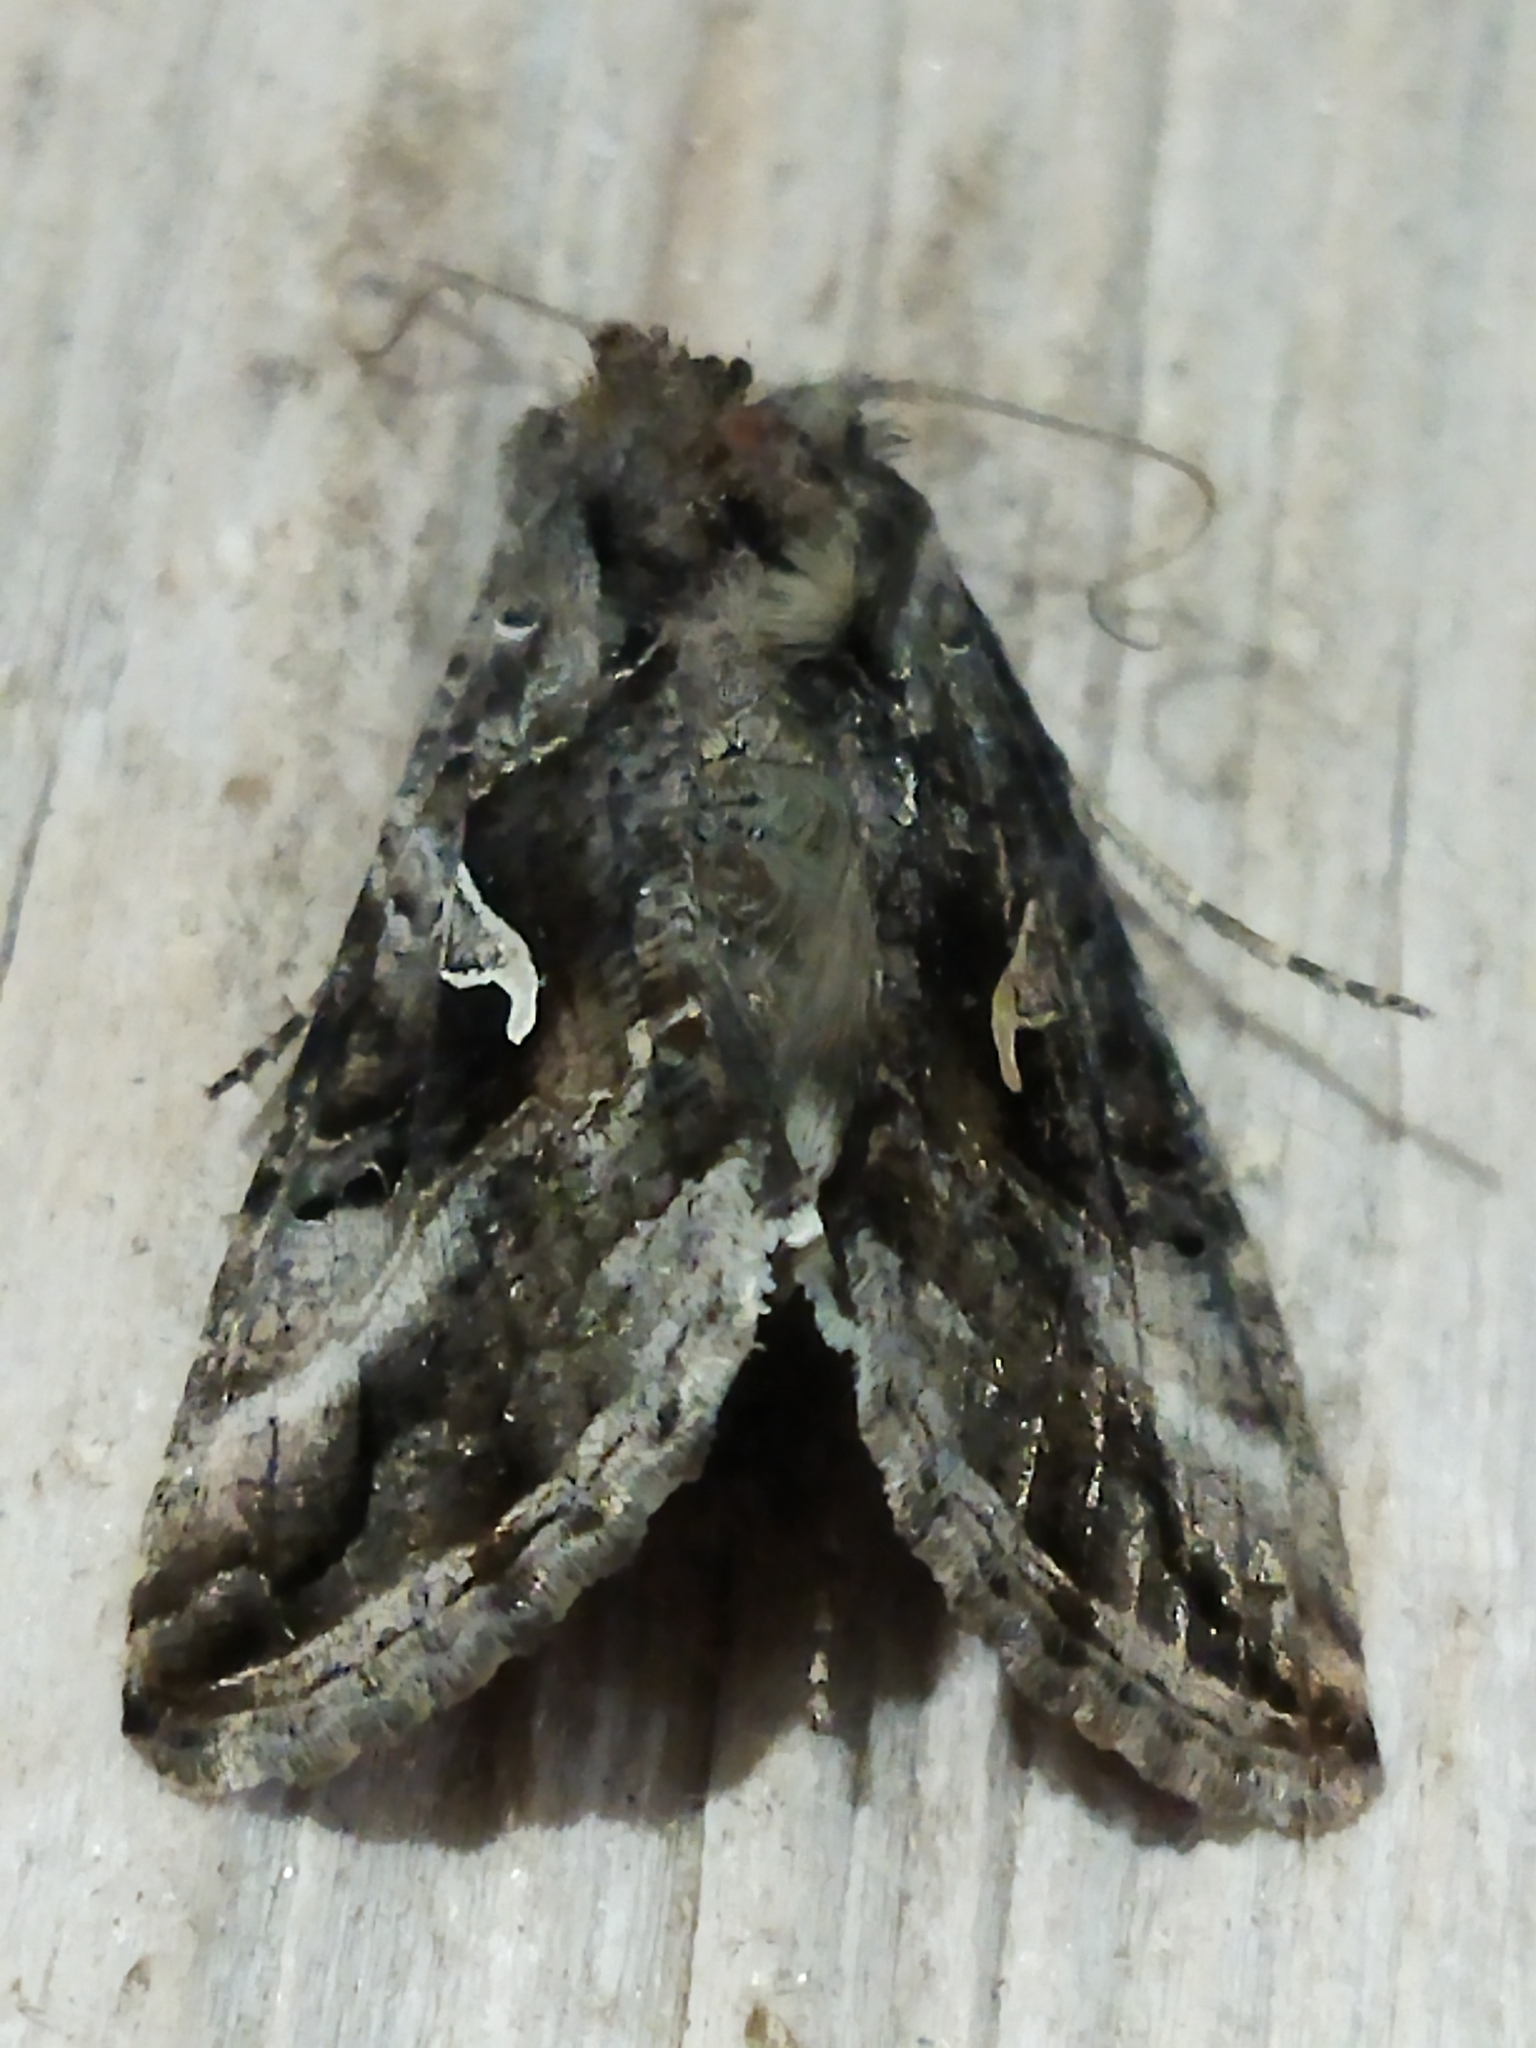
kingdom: Animalia
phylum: Arthropoda
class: Insecta
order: Lepidoptera
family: Noctuidae
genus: Autographa
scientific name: Autographa gamma
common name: Silver y
